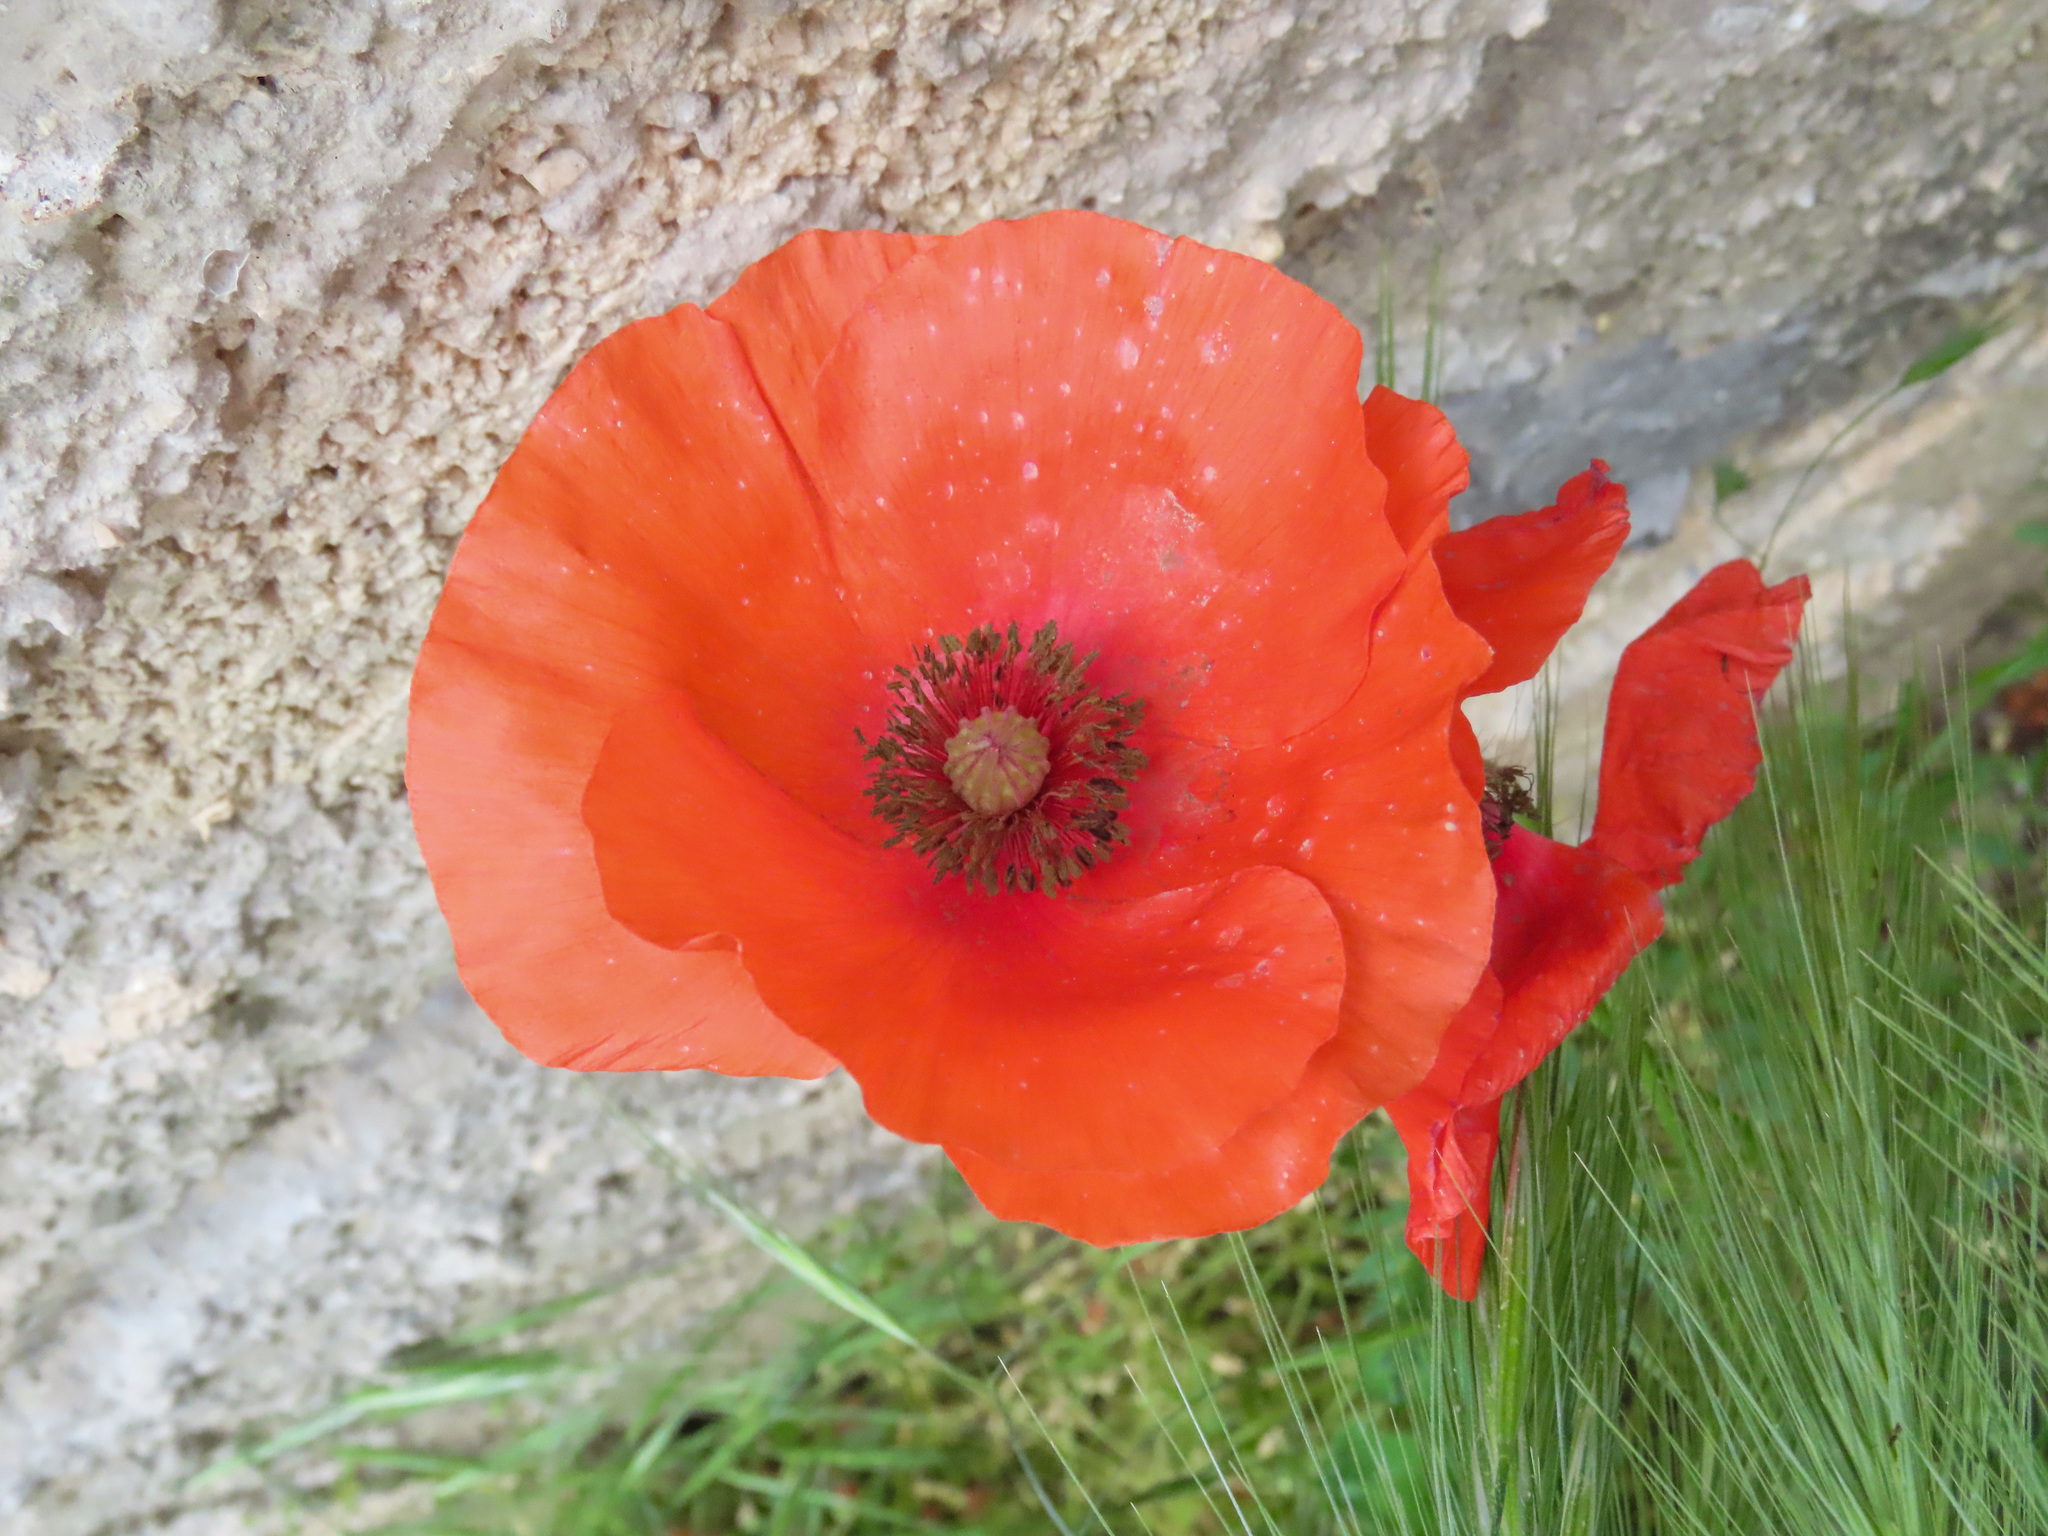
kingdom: Plantae
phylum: Tracheophyta
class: Magnoliopsida
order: Ranunculales
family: Papaveraceae
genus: Papaver
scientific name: Papaver rhoeas
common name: Corn poppy
